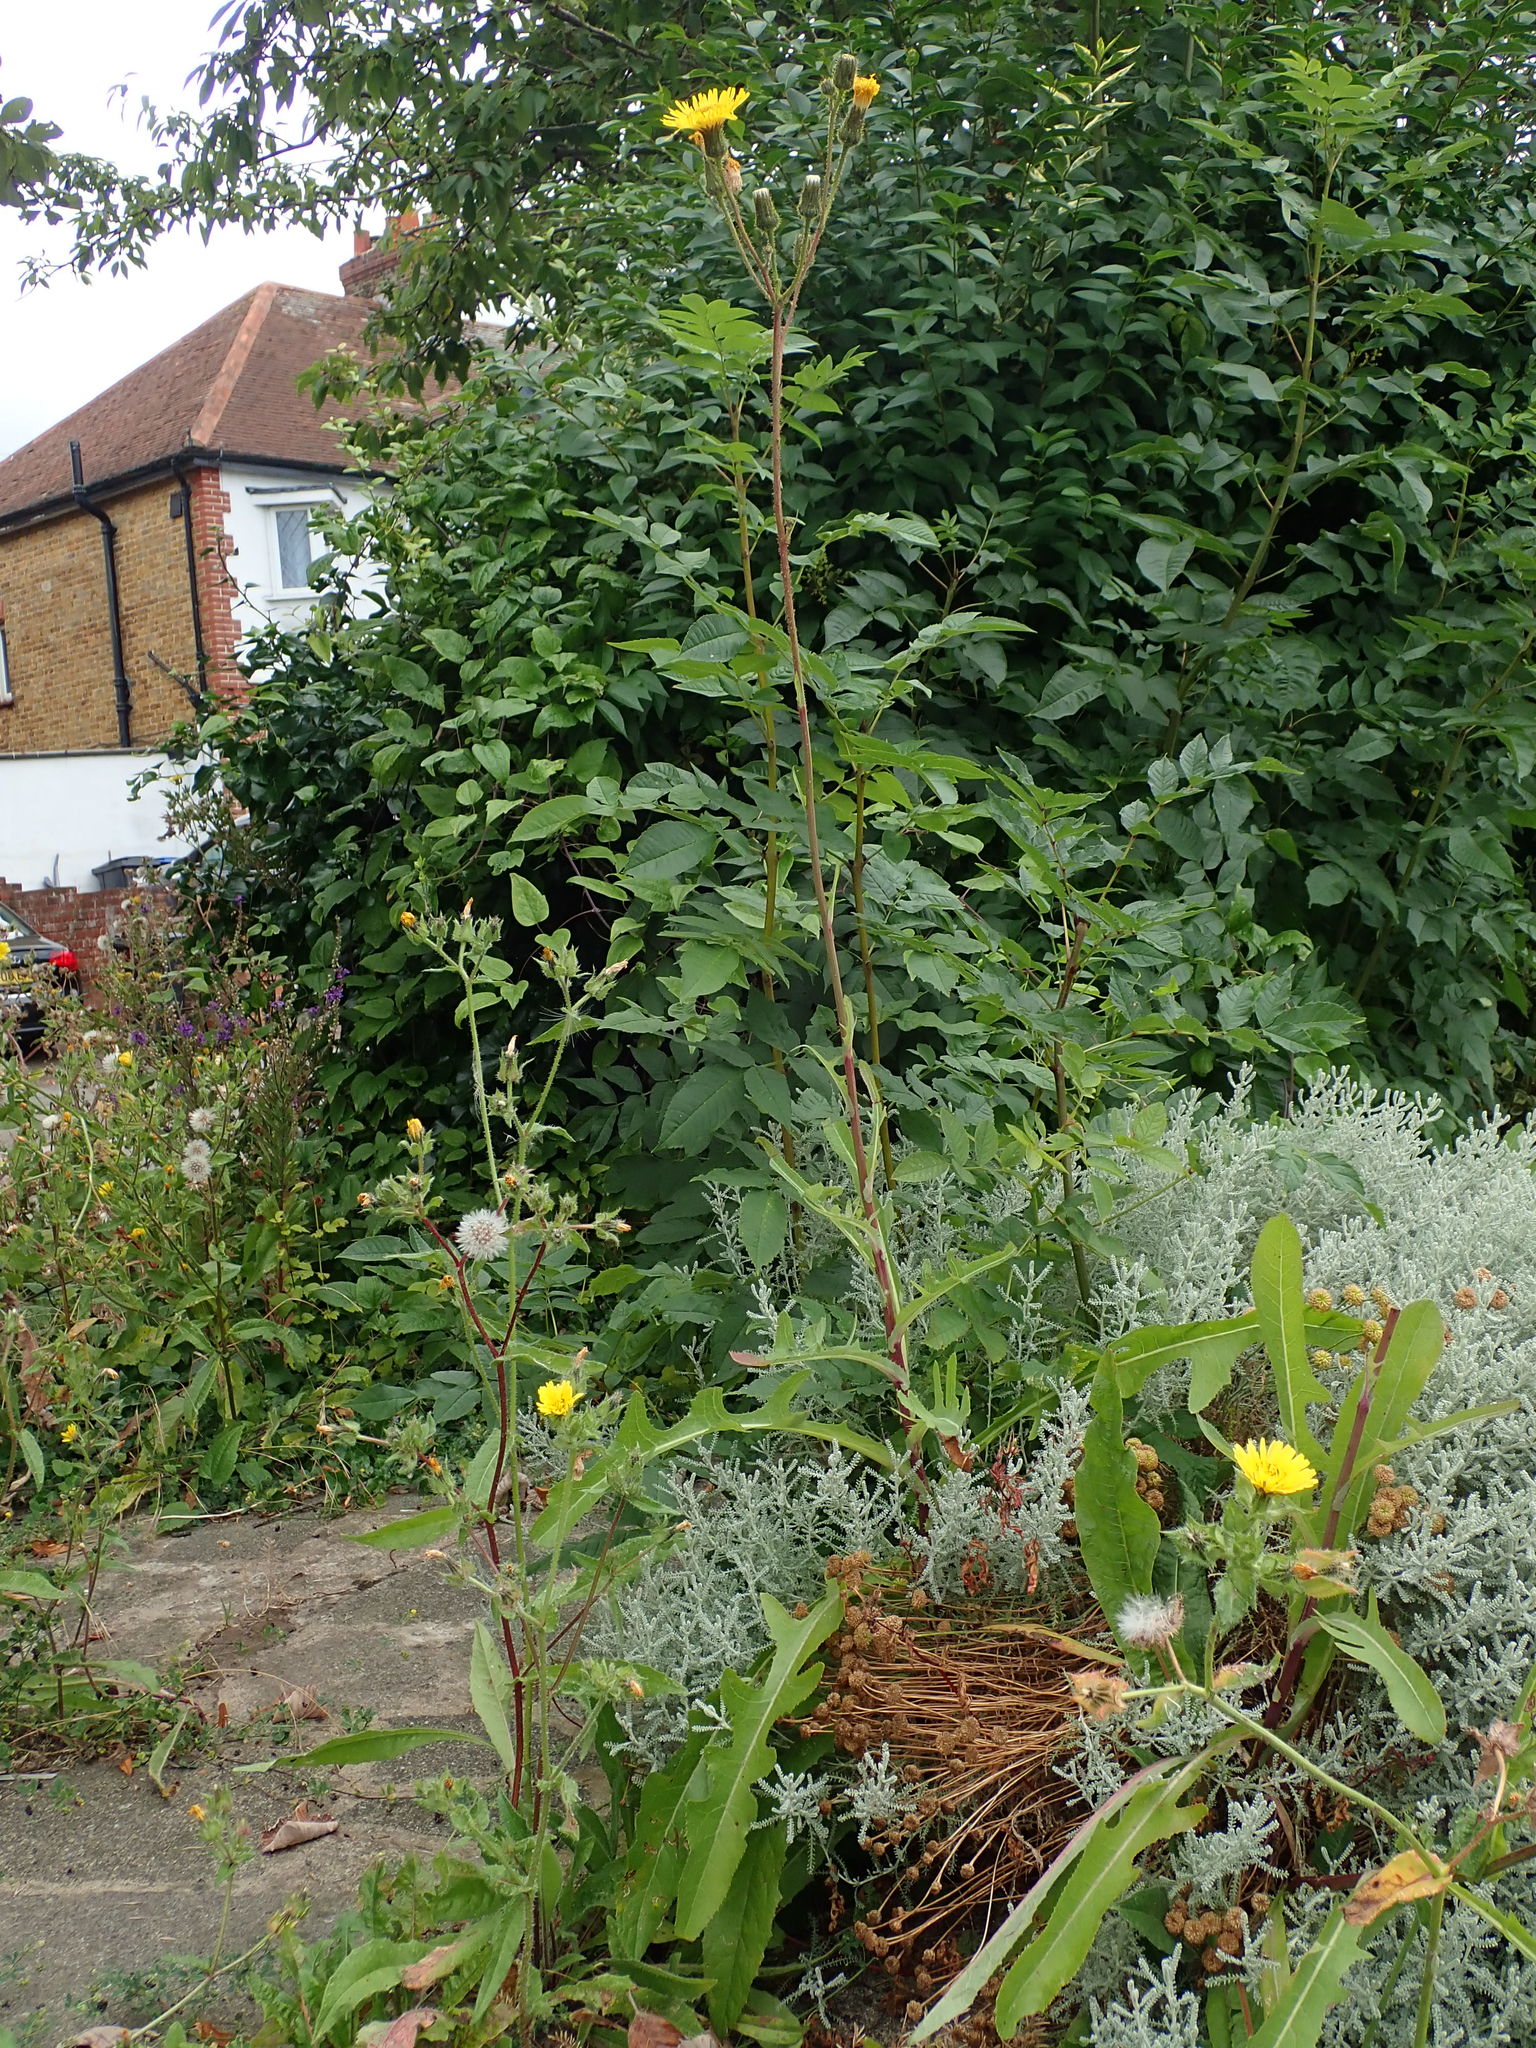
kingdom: Plantae
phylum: Tracheophyta
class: Magnoliopsida
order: Asterales
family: Asteraceae
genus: Sonchus
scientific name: Sonchus arvensis
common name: Perennial sow-thistle
